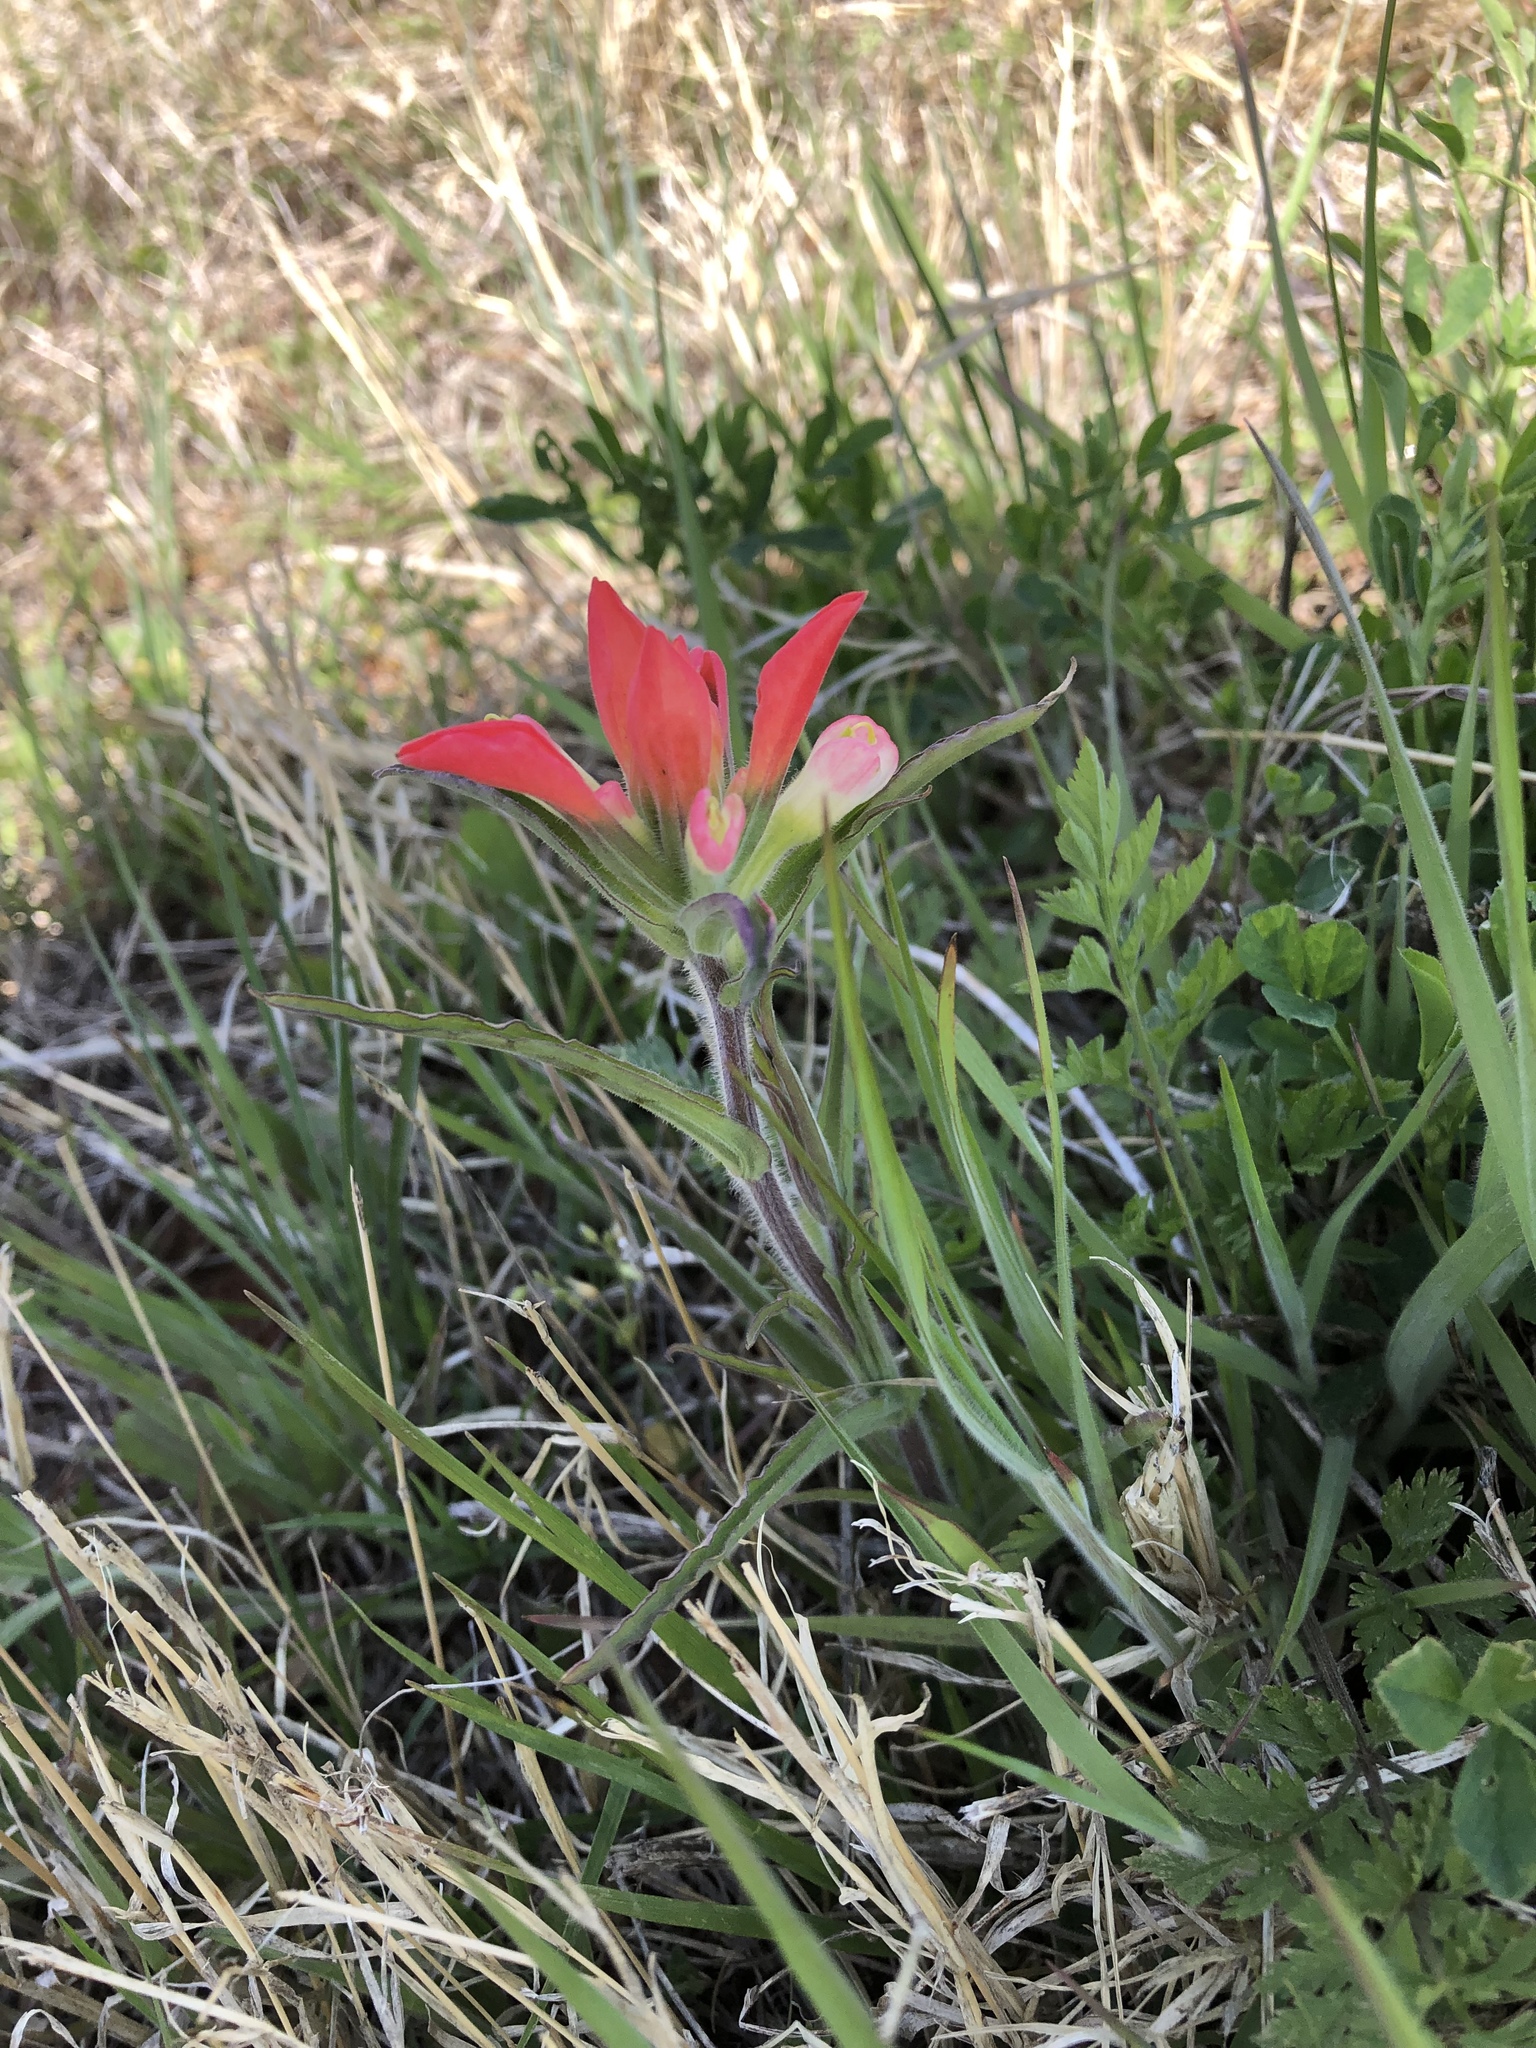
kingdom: Plantae
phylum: Tracheophyta
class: Magnoliopsida
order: Lamiales
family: Orobanchaceae
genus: Castilleja
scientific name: Castilleja indivisa
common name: Texas paintbrush
